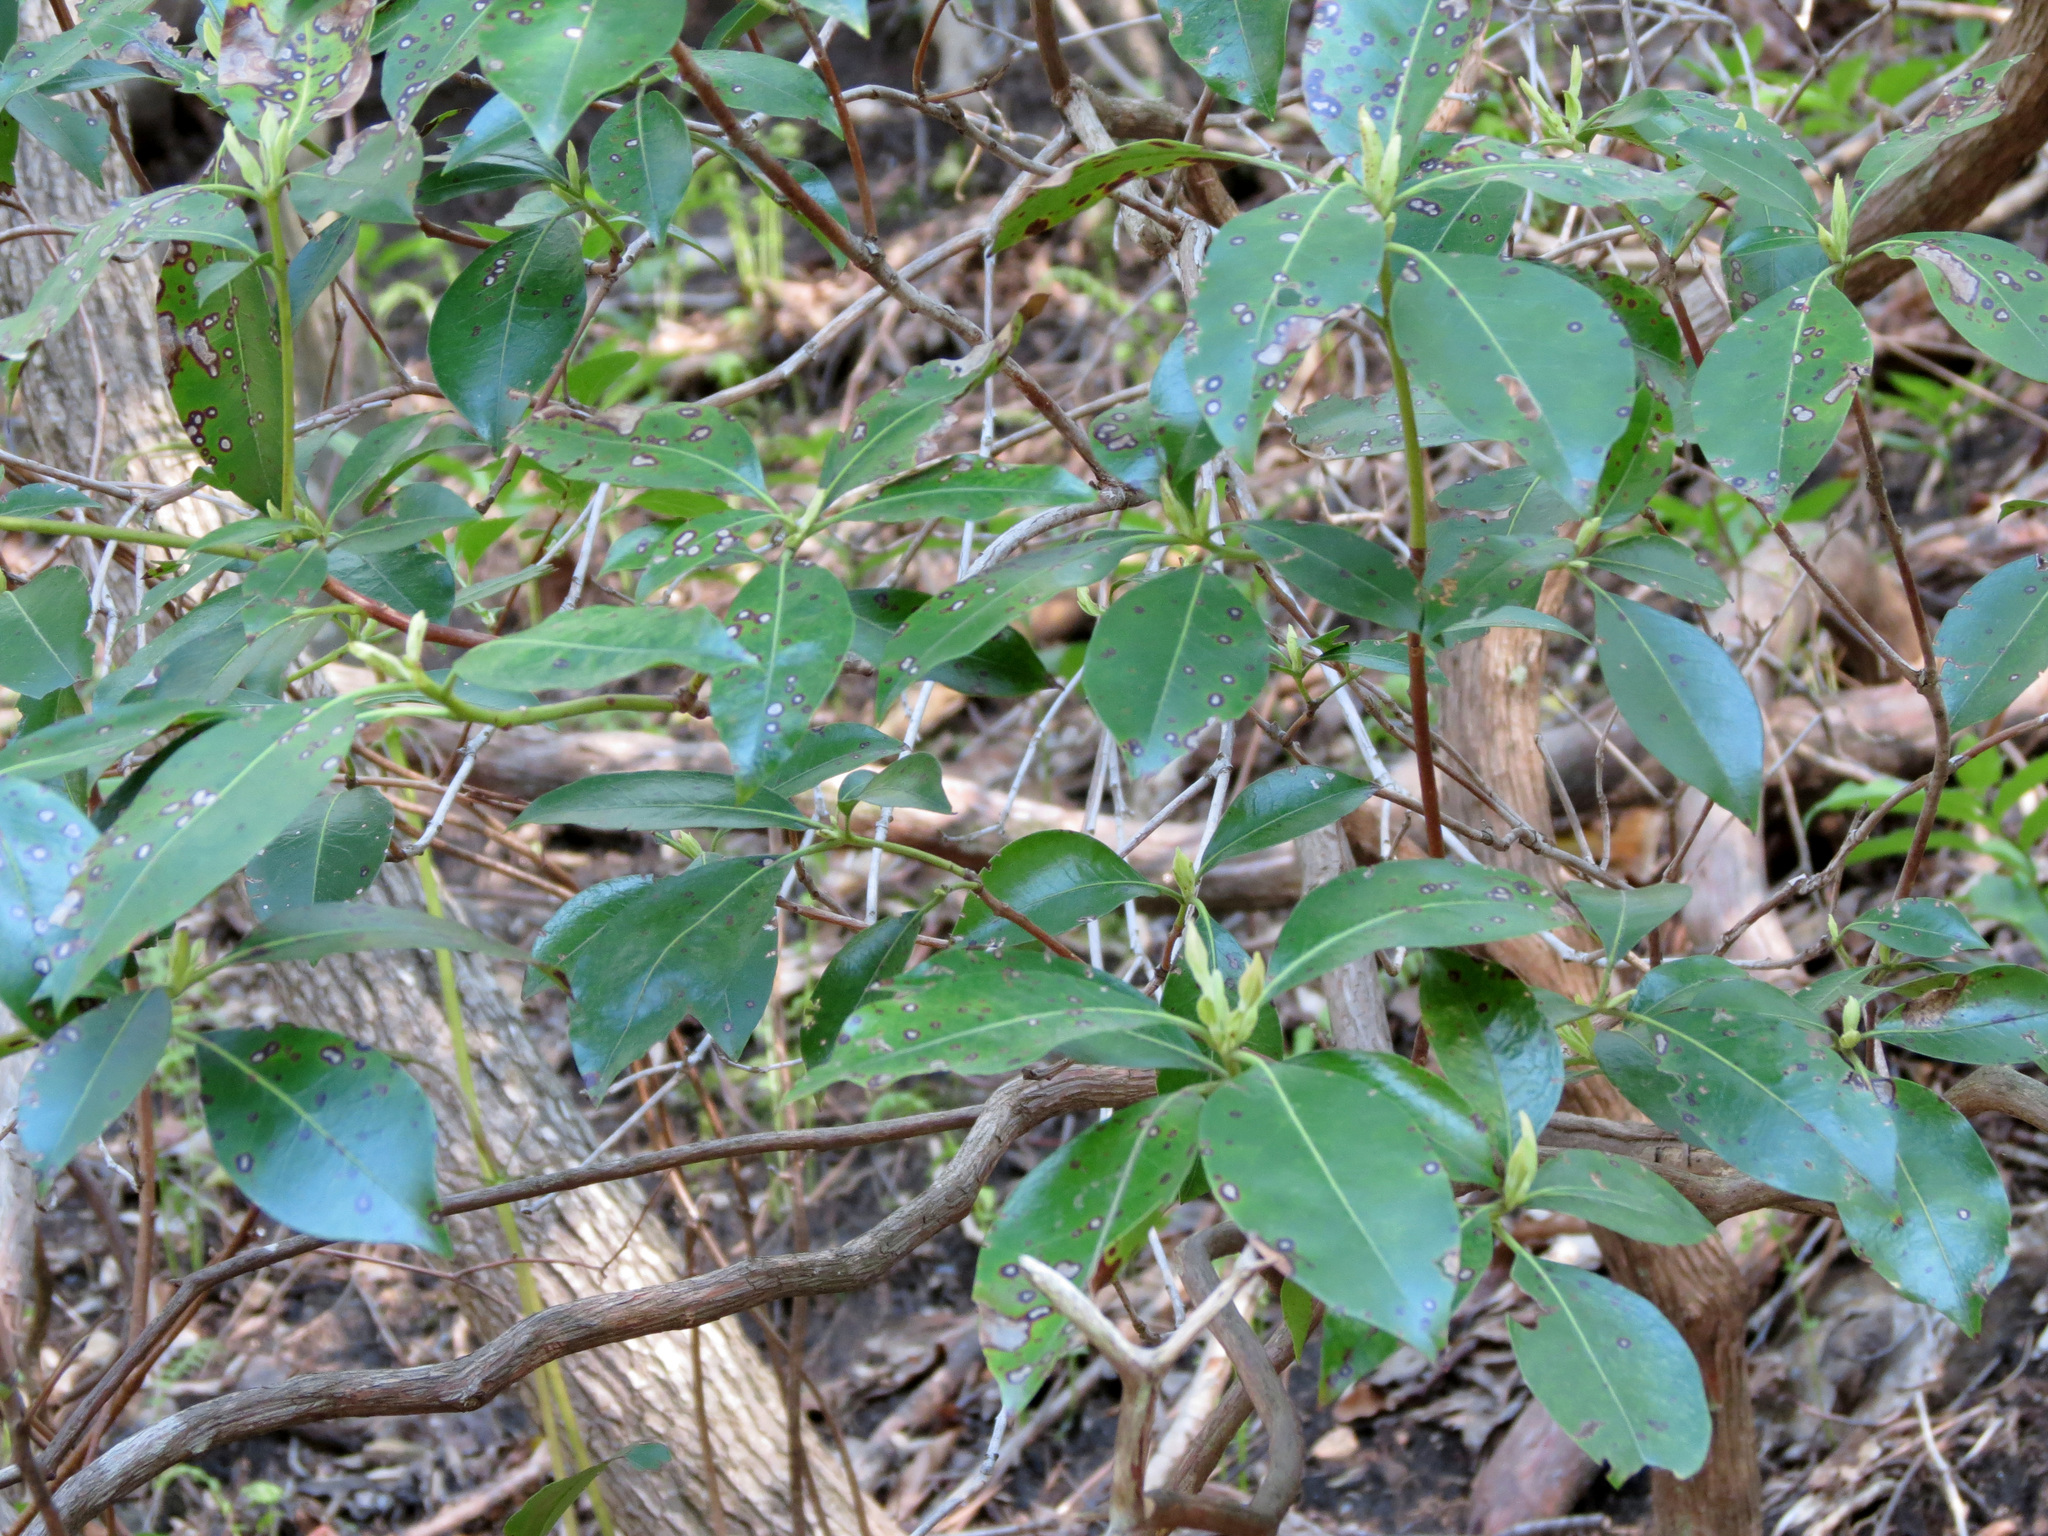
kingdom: Plantae
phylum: Tracheophyta
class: Magnoliopsida
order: Ericales
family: Ericaceae
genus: Kalmia
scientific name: Kalmia latifolia
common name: Mountain-laurel
